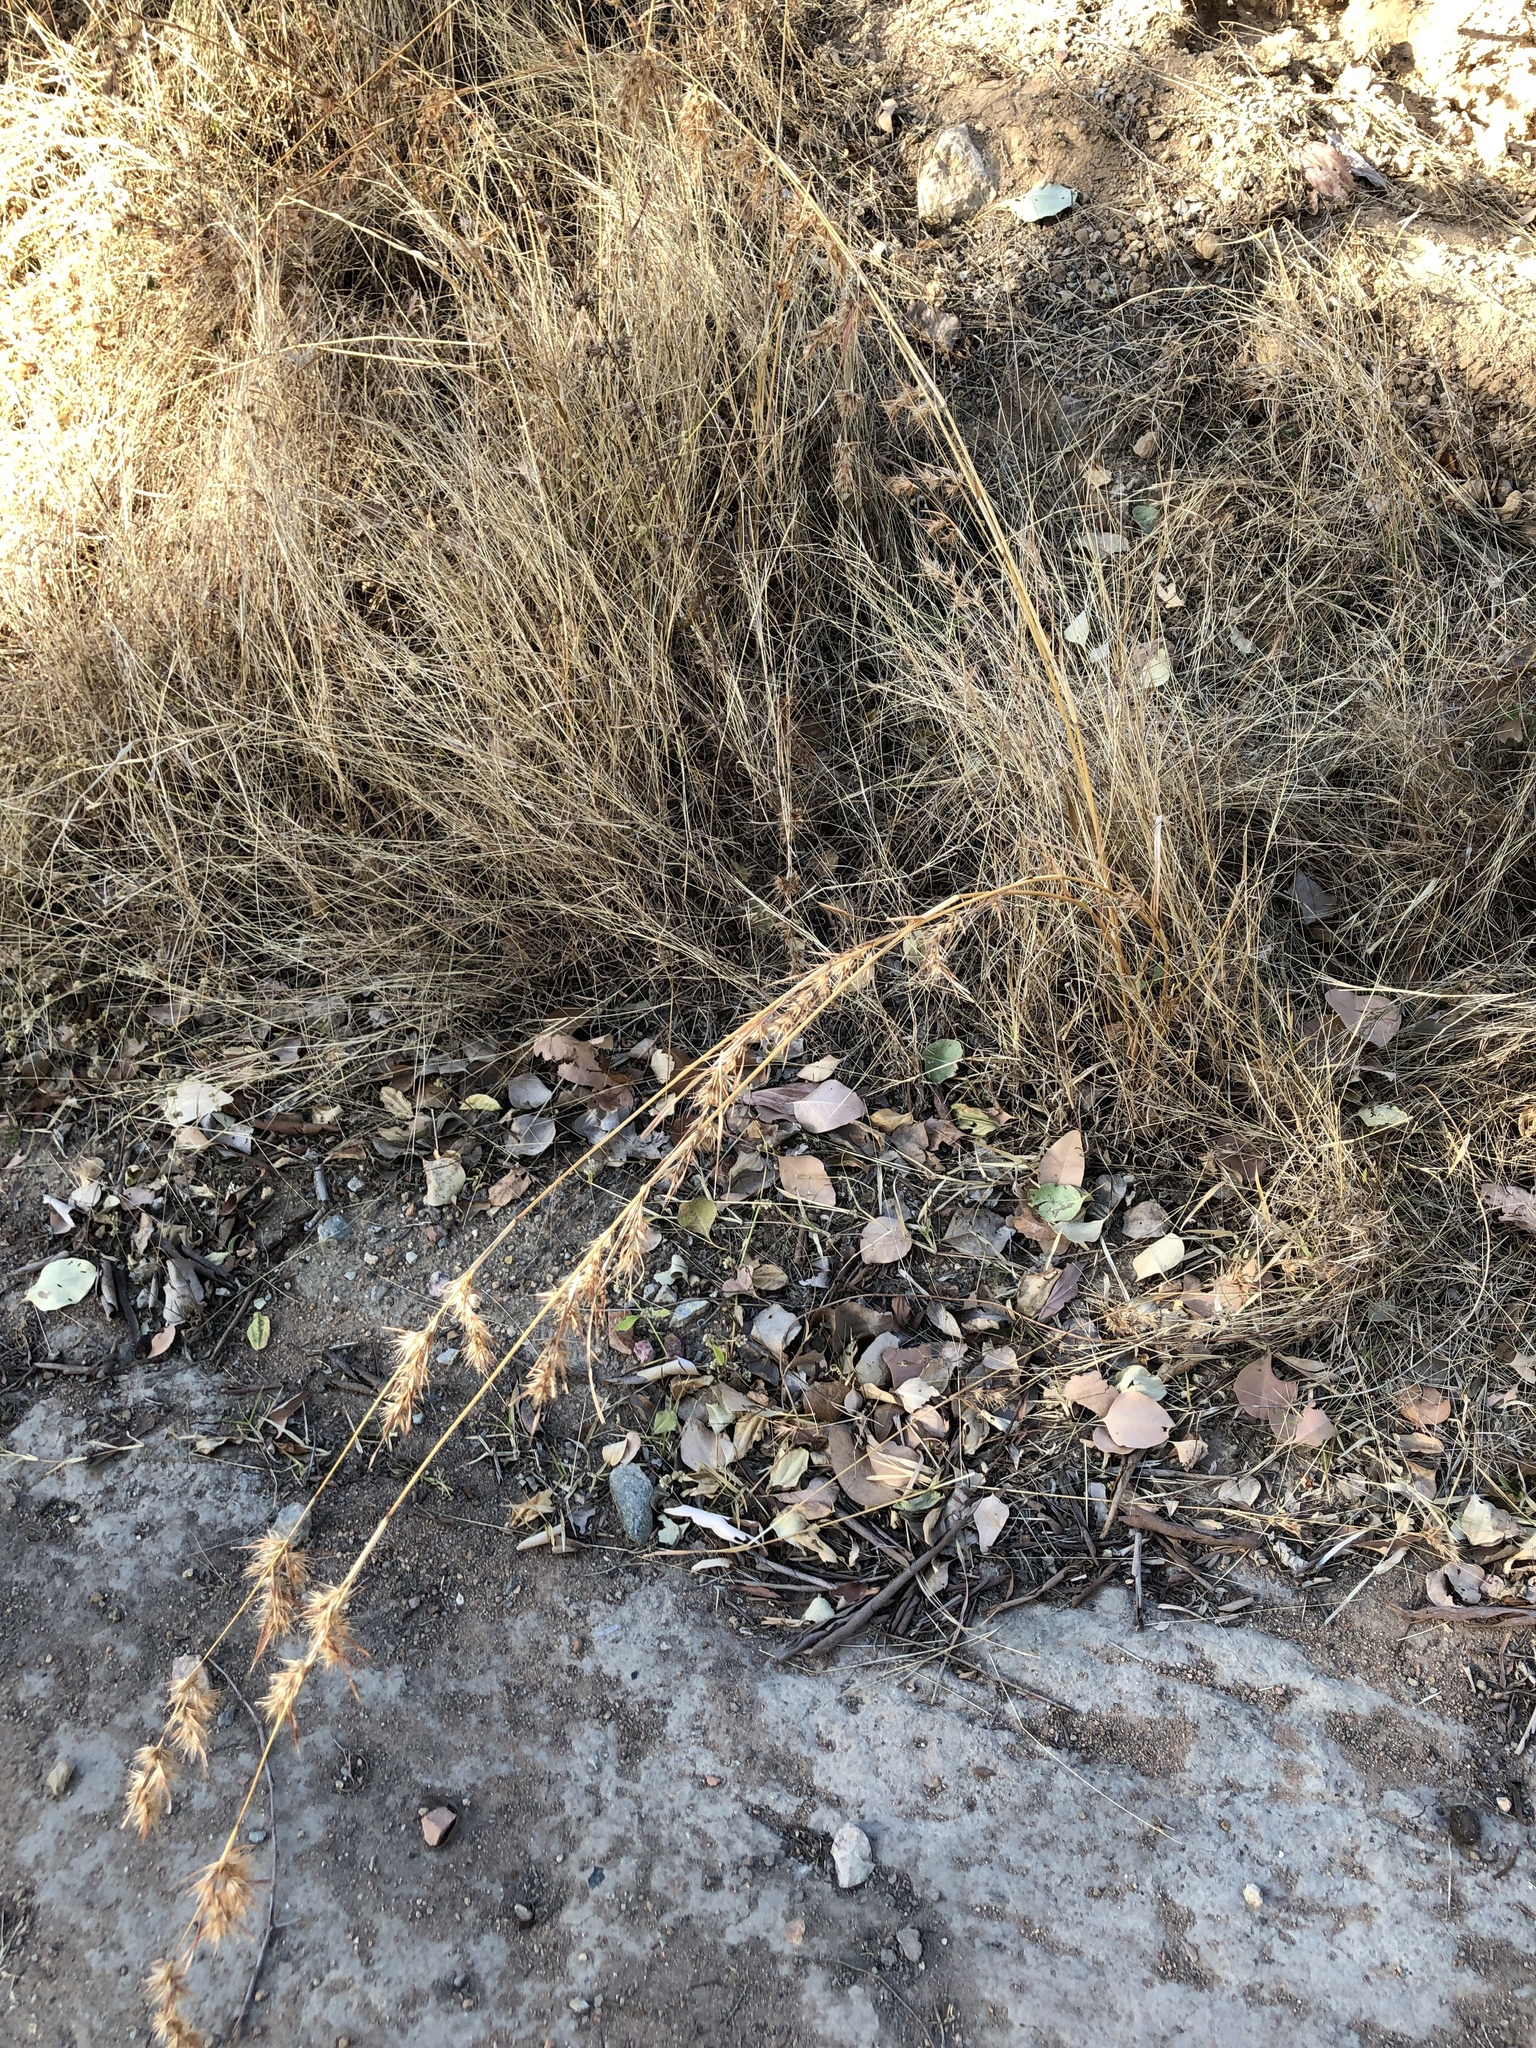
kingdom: Plantae
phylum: Tracheophyta
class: Liliopsida
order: Poales
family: Poaceae
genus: Themeda
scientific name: Themeda quadrivalvis
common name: Kangaroo grass
